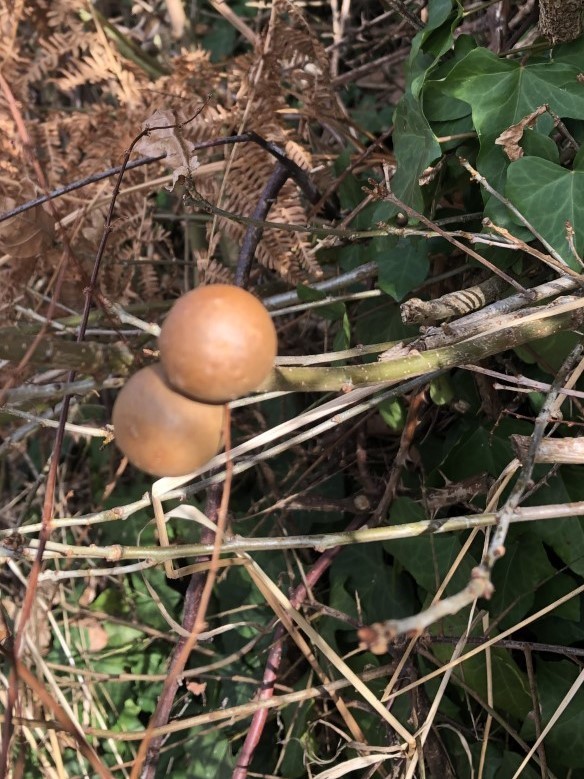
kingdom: Animalia
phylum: Arthropoda
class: Insecta
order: Hymenoptera
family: Cynipidae
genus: Andricus
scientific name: Andricus kollari
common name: Marble gall
